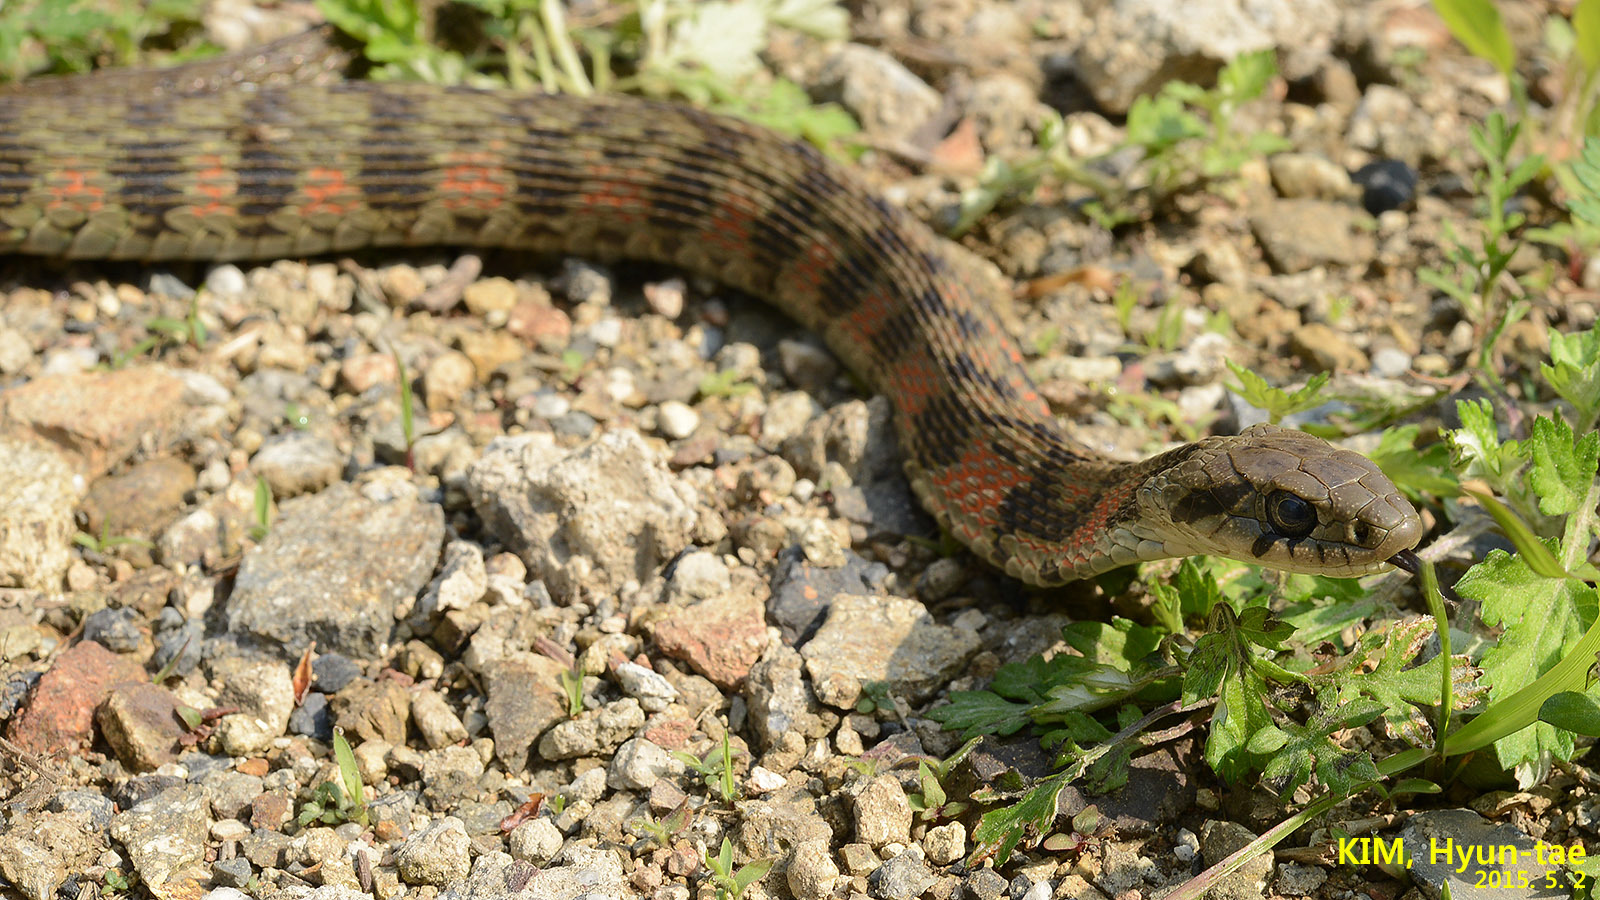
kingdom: Animalia
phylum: Chordata
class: Squamata
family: Colubridae
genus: Rhabdophis
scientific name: Rhabdophis tigrinus
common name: Tiger keelback
